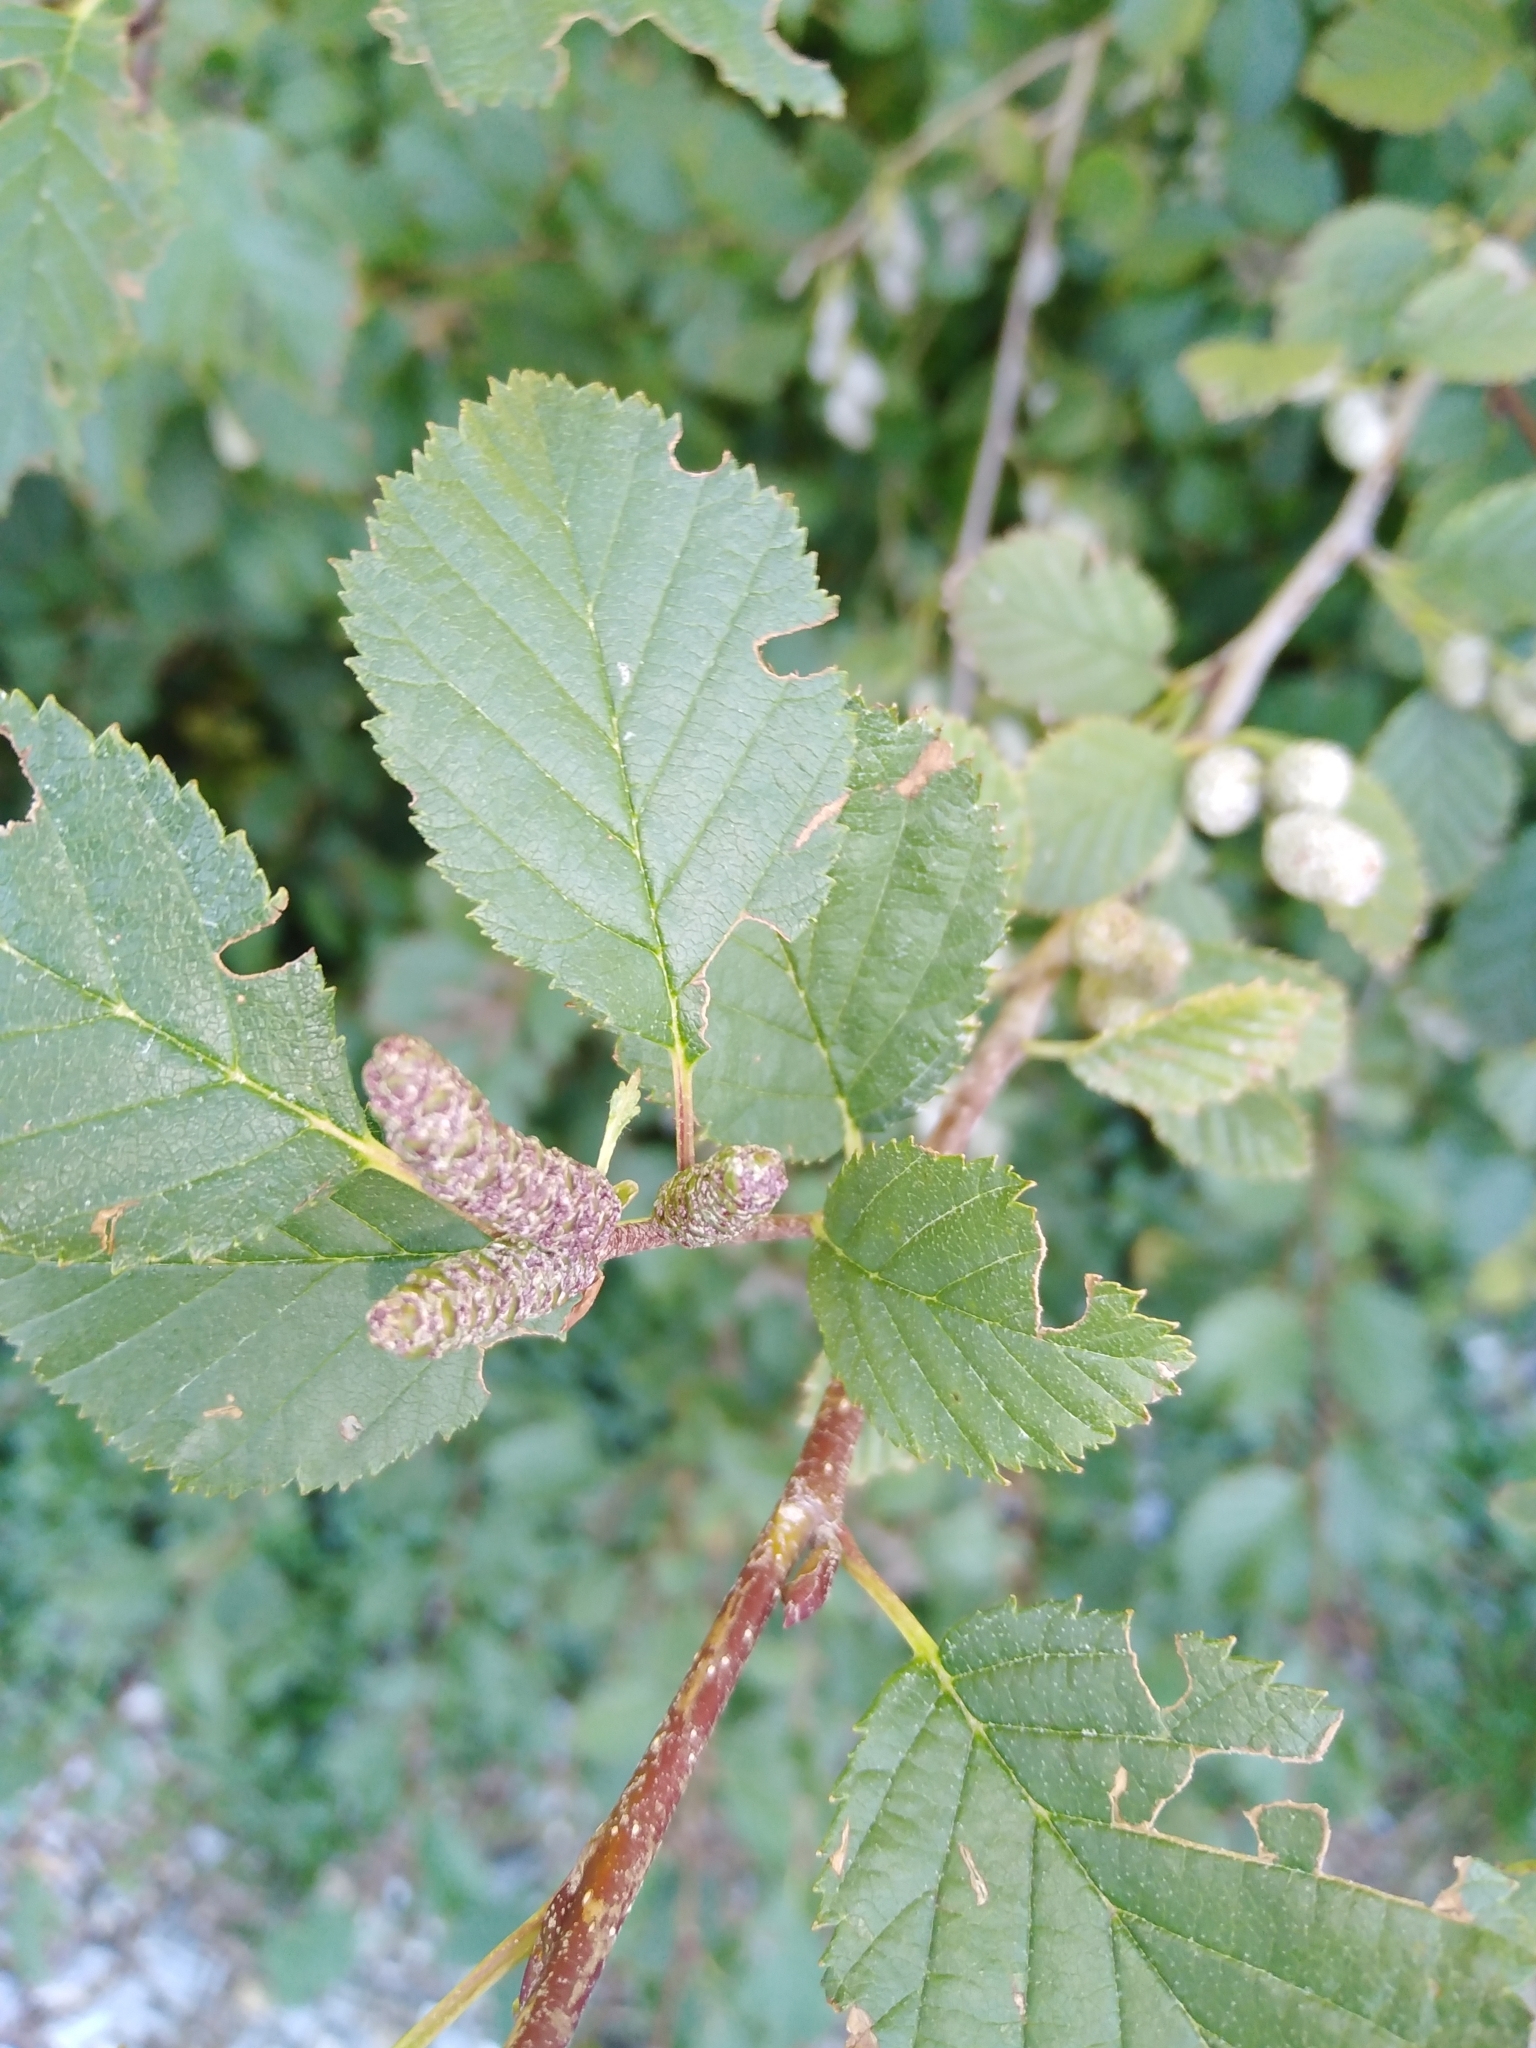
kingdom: Plantae
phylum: Tracheophyta
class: Magnoliopsida
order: Fagales
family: Betulaceae
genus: Alnus
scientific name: Alnus alnobetula
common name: Green alder
